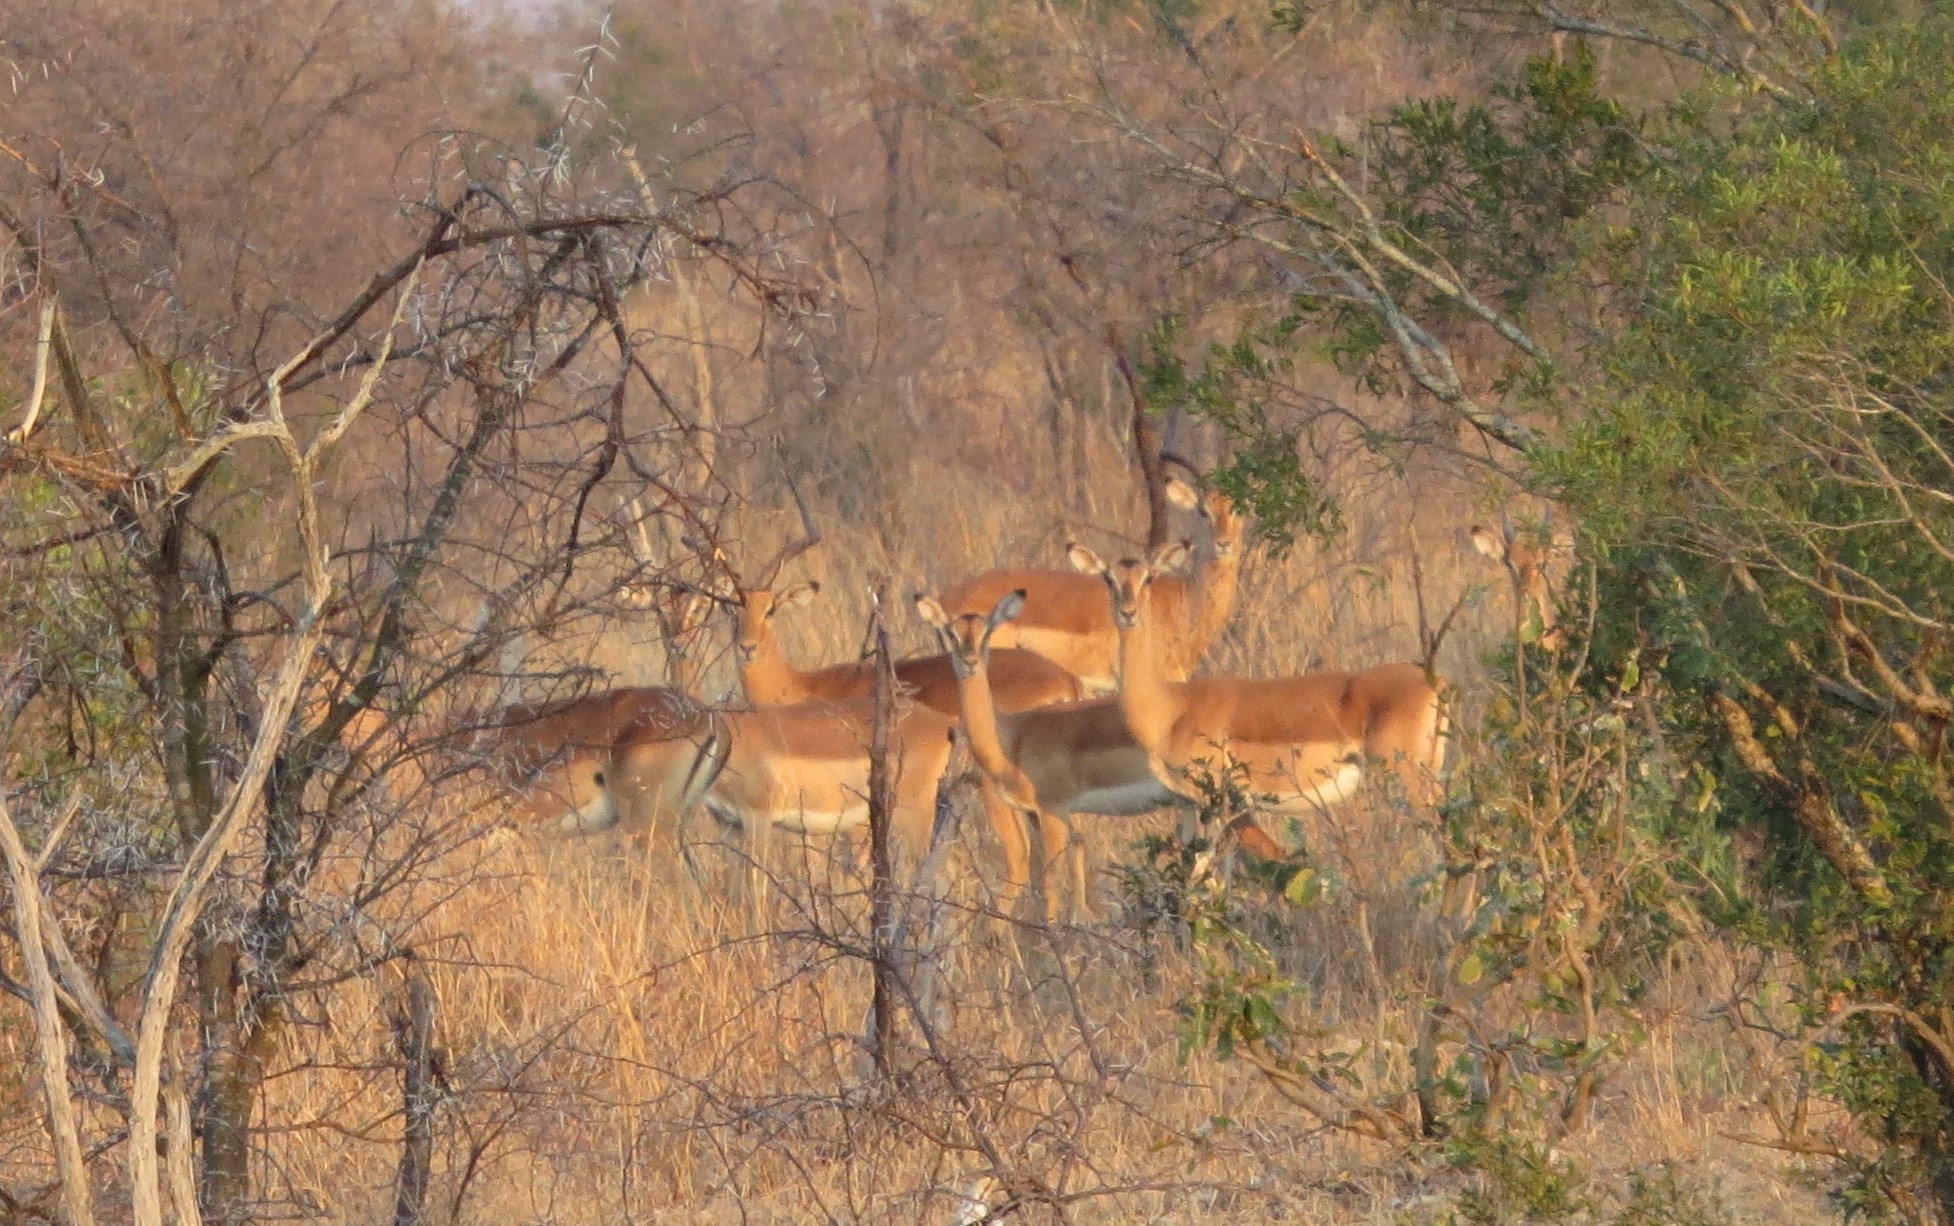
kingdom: Animalia
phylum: Chordata
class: Mammalia
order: Artiodactyla
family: Bovidae
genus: Aepyceros
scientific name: Aepyceros melampus
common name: Impala
